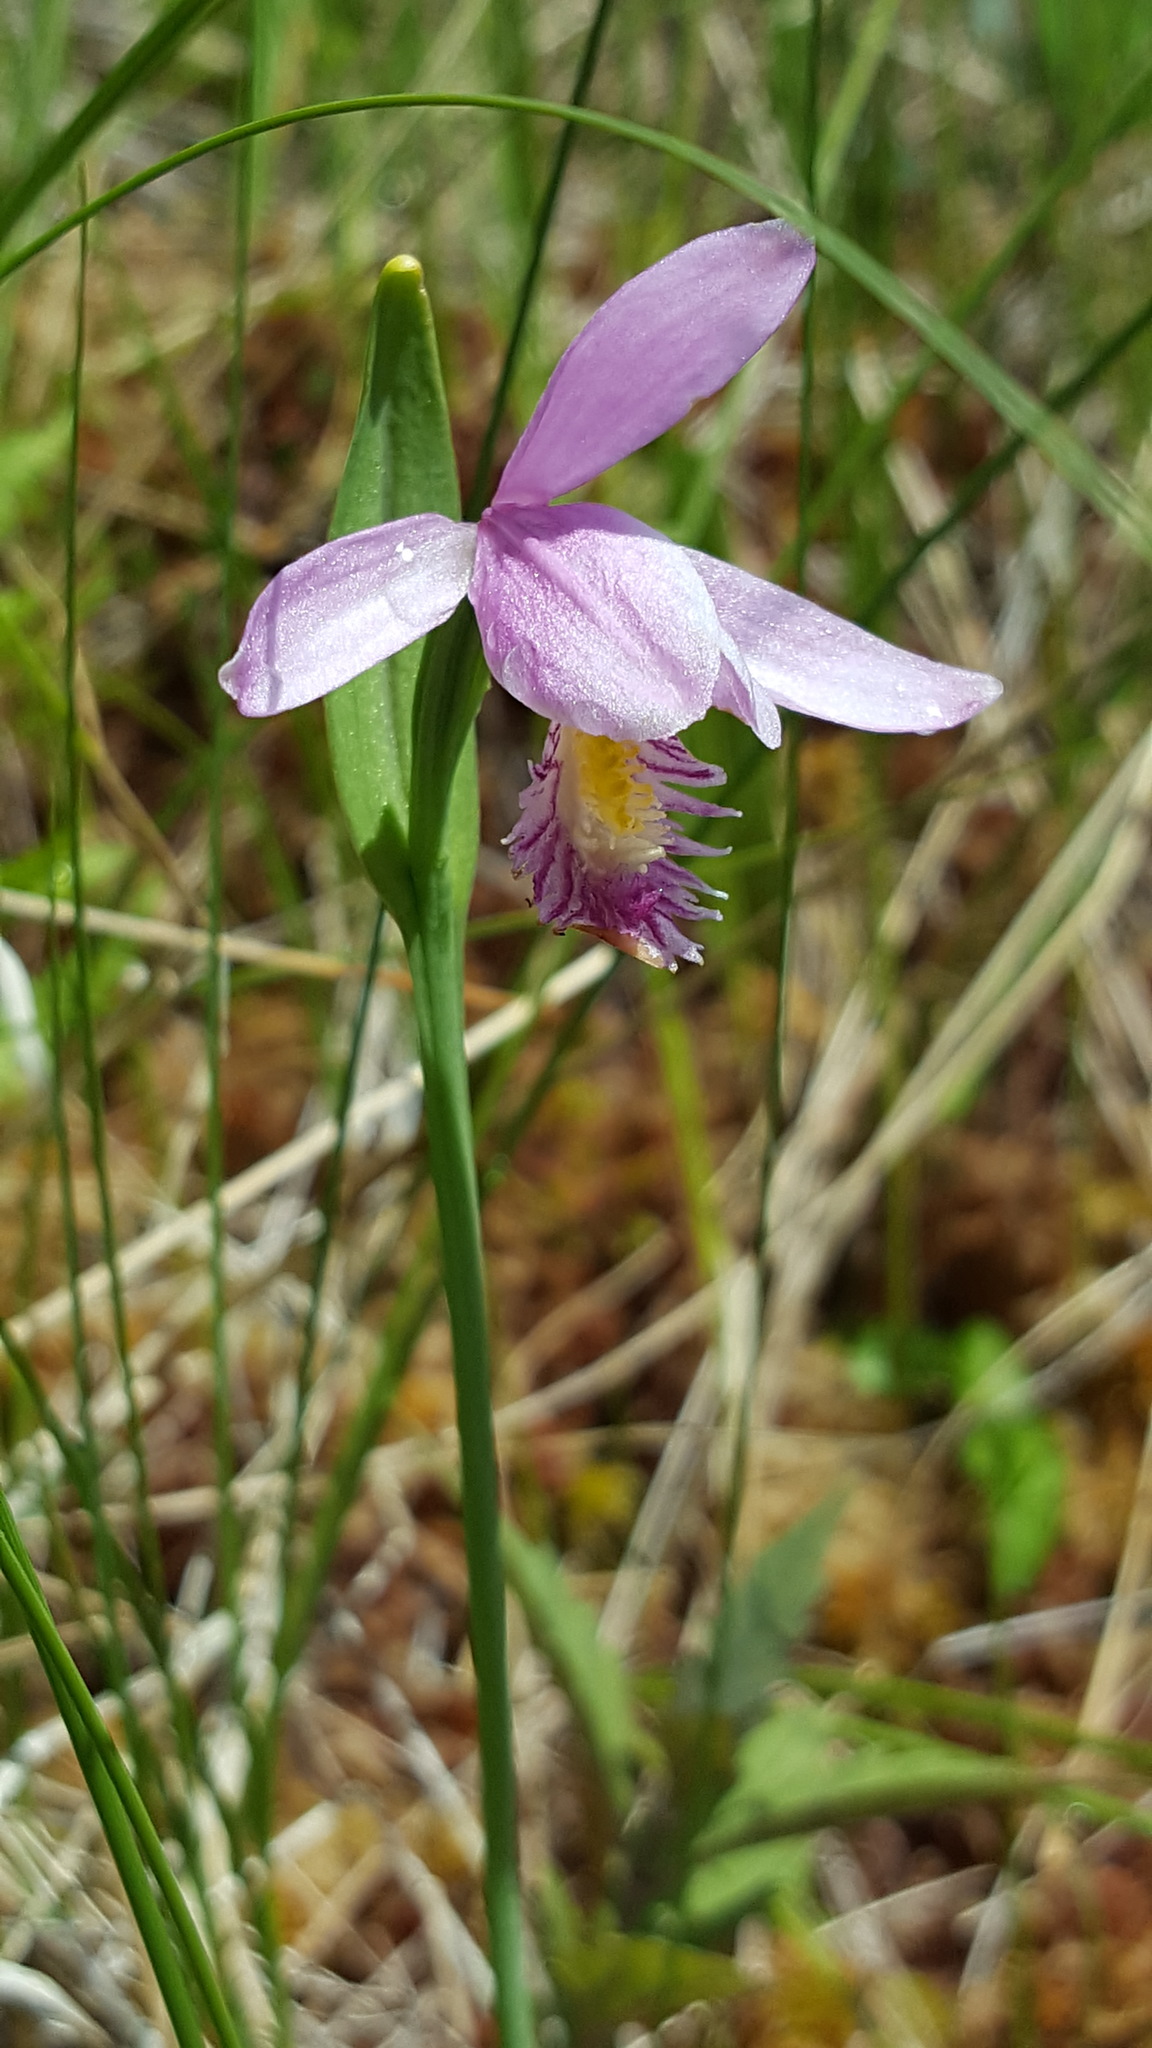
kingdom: Plantae
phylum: Tracheophyta
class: Liliopsida
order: Asparagales
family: Orchidaceae
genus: Pogonia
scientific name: Pogonia ophioglossoides
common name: Rose pogonia
